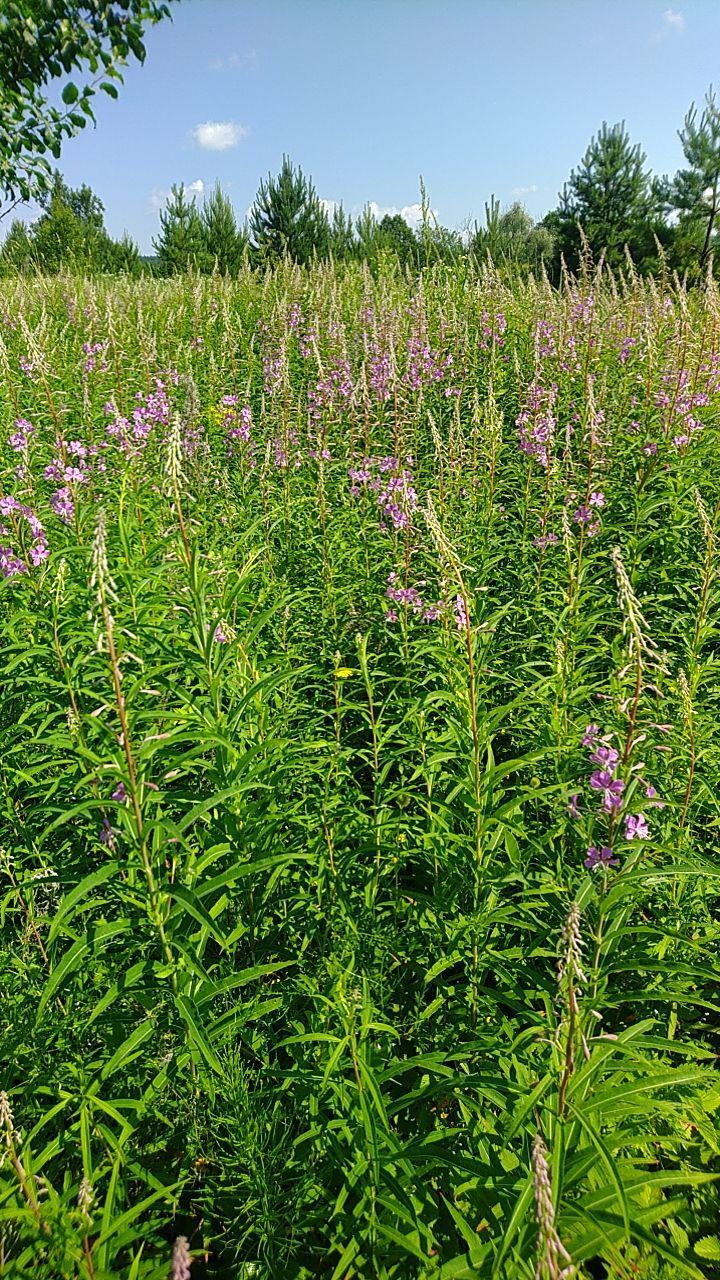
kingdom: Plantae
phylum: Tracheophyta
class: Magnoliopsida
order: Myrtales
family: Onagraceae
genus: Chamaenerion
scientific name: Chamaenerion angustifolium
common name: Fireweed
